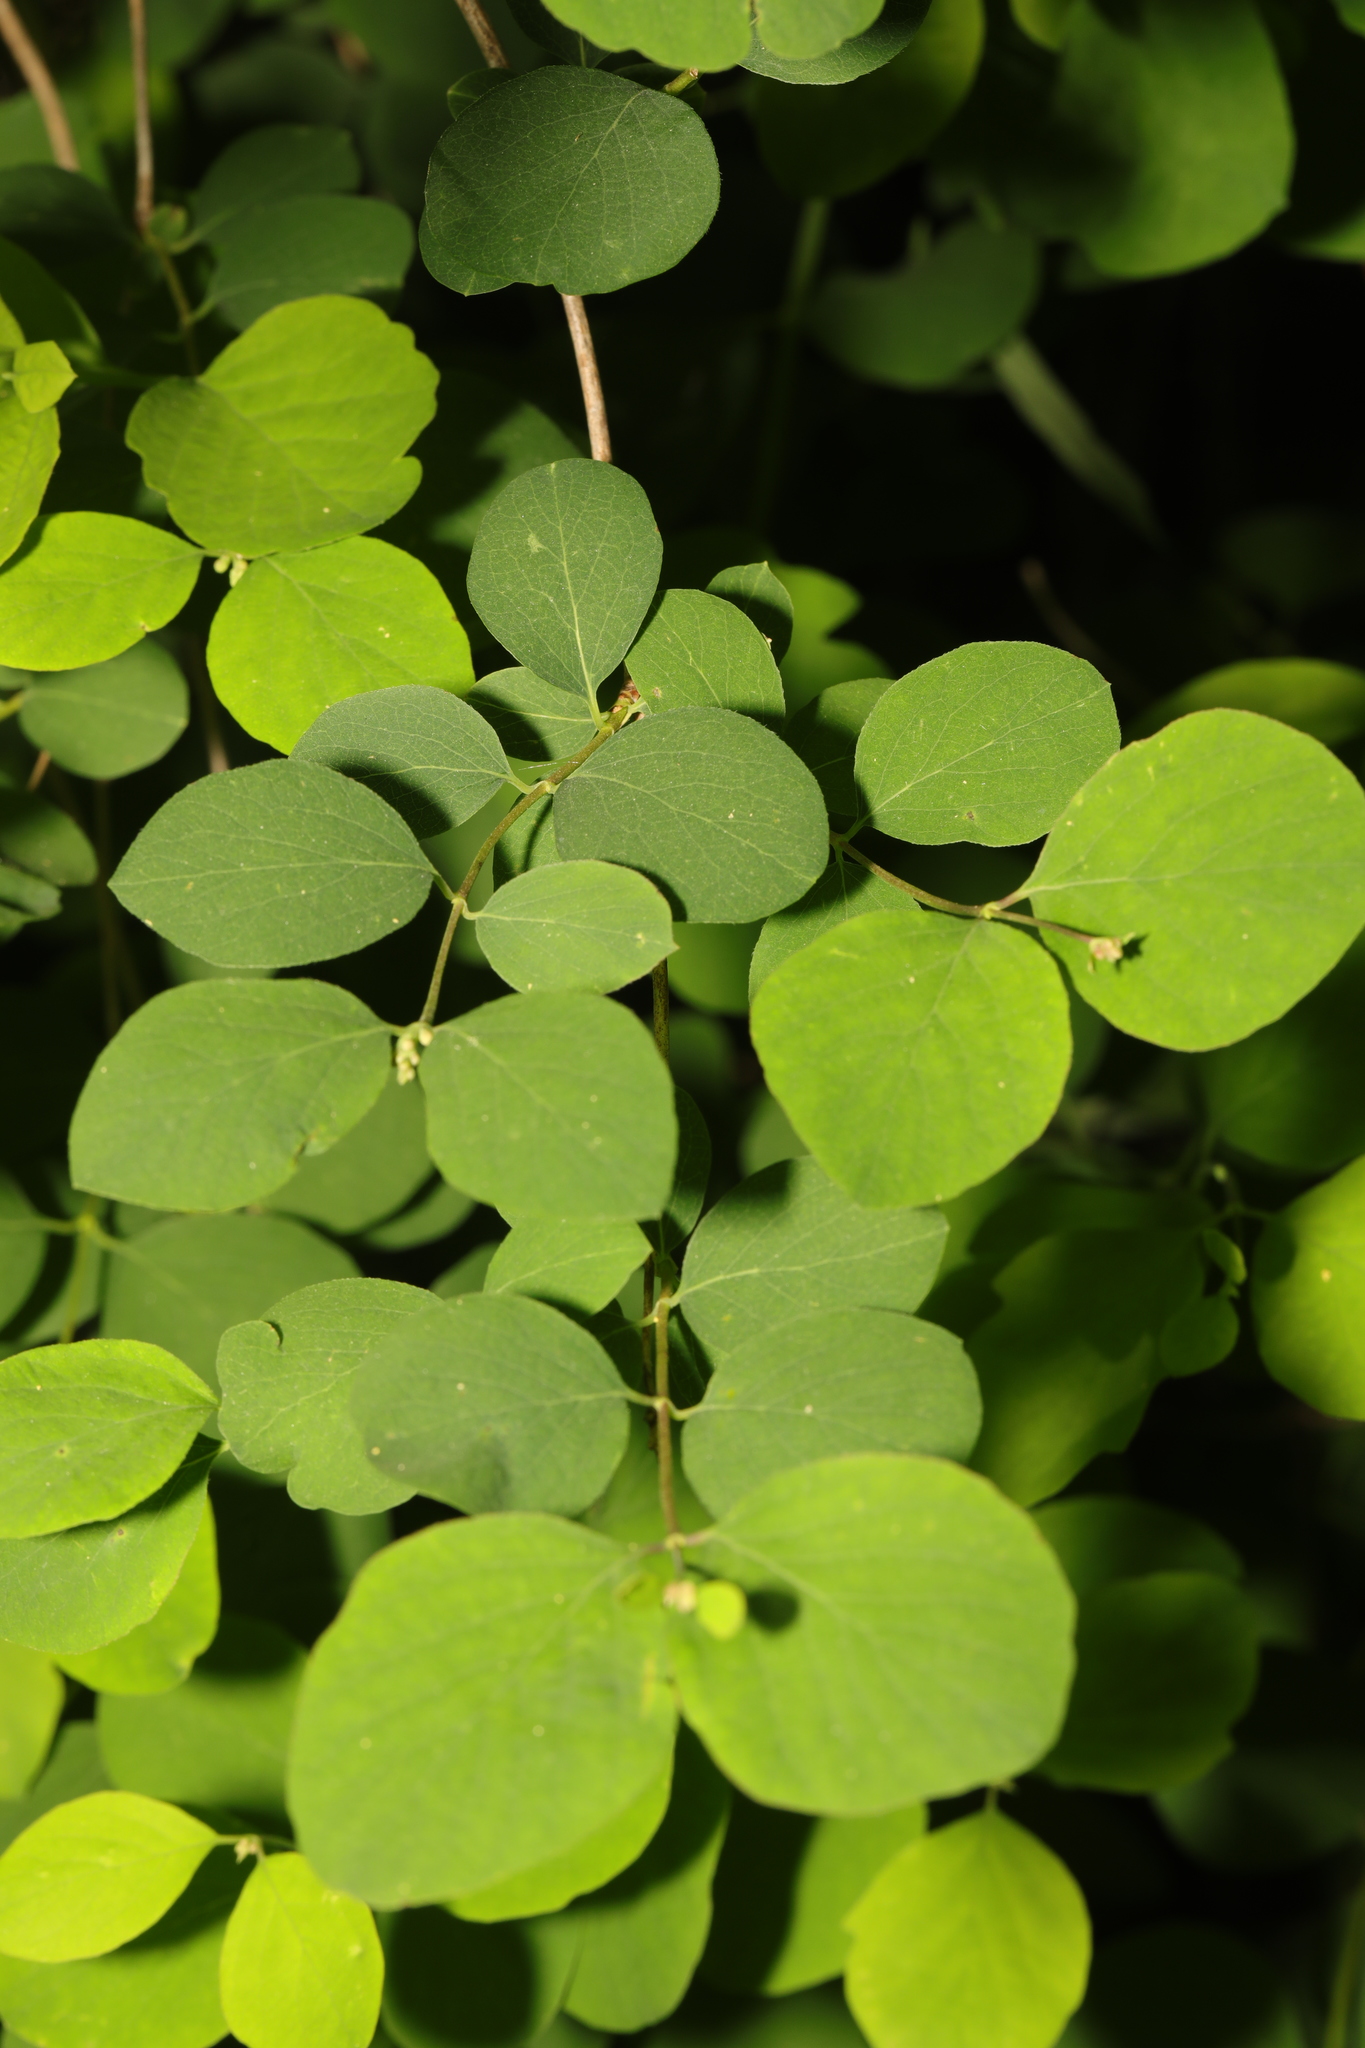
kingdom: Plantae
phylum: Tracheophyta
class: Magnoliopsida
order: Dipsacales
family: Caprifoliaceae
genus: Symphoricarpos
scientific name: Symphoricarpos albus
